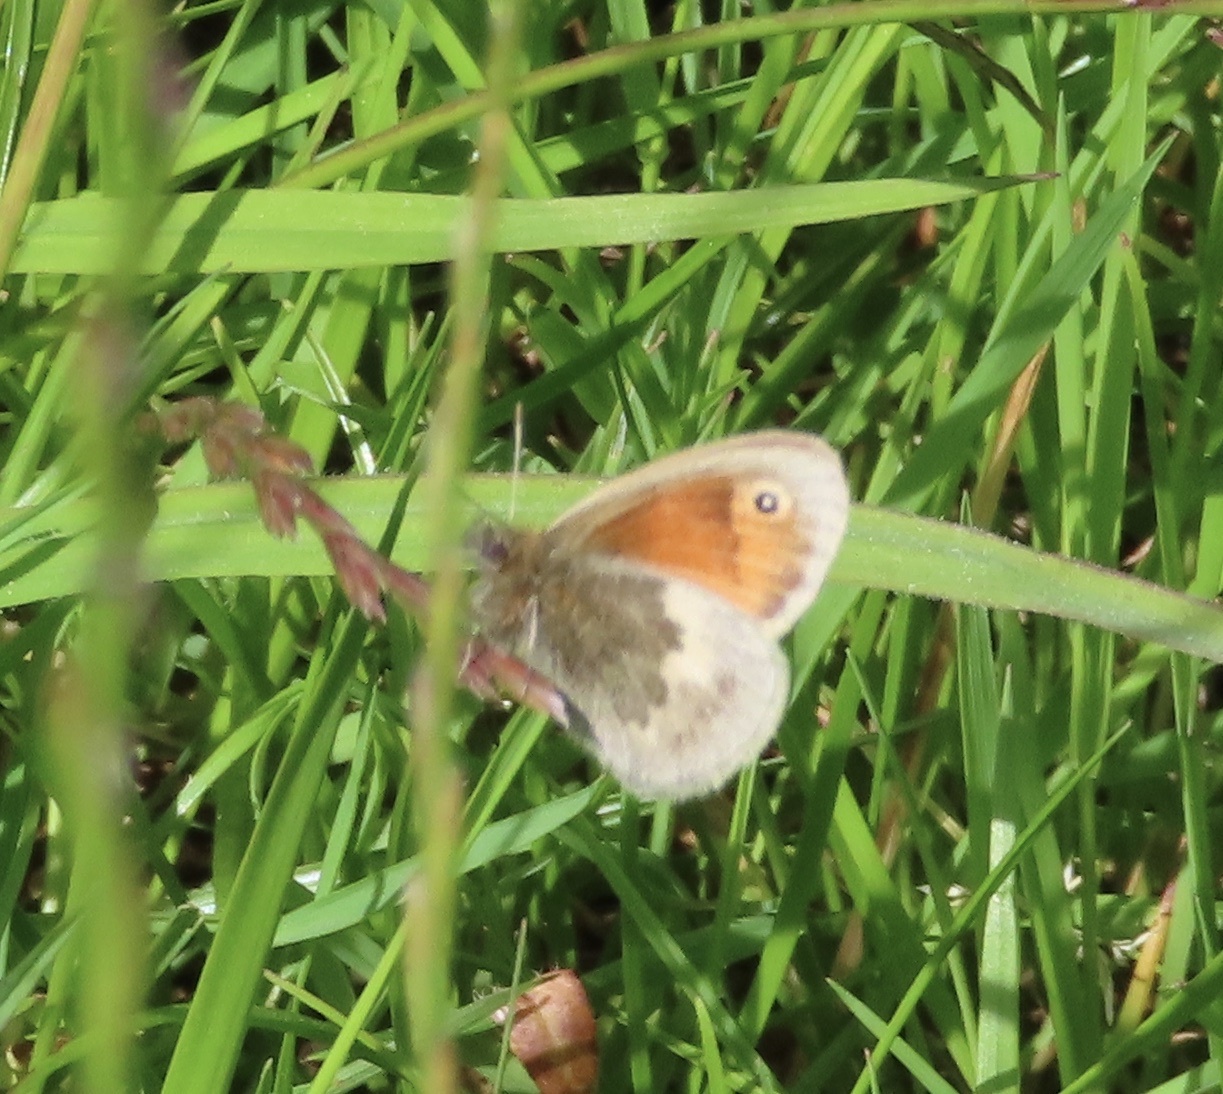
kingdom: Animalia
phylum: Arthropoda
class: Insecta
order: Lepidoptera
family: Nymphalidae
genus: Coenonympha
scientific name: Coenonympha pamphilus
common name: Small heath
